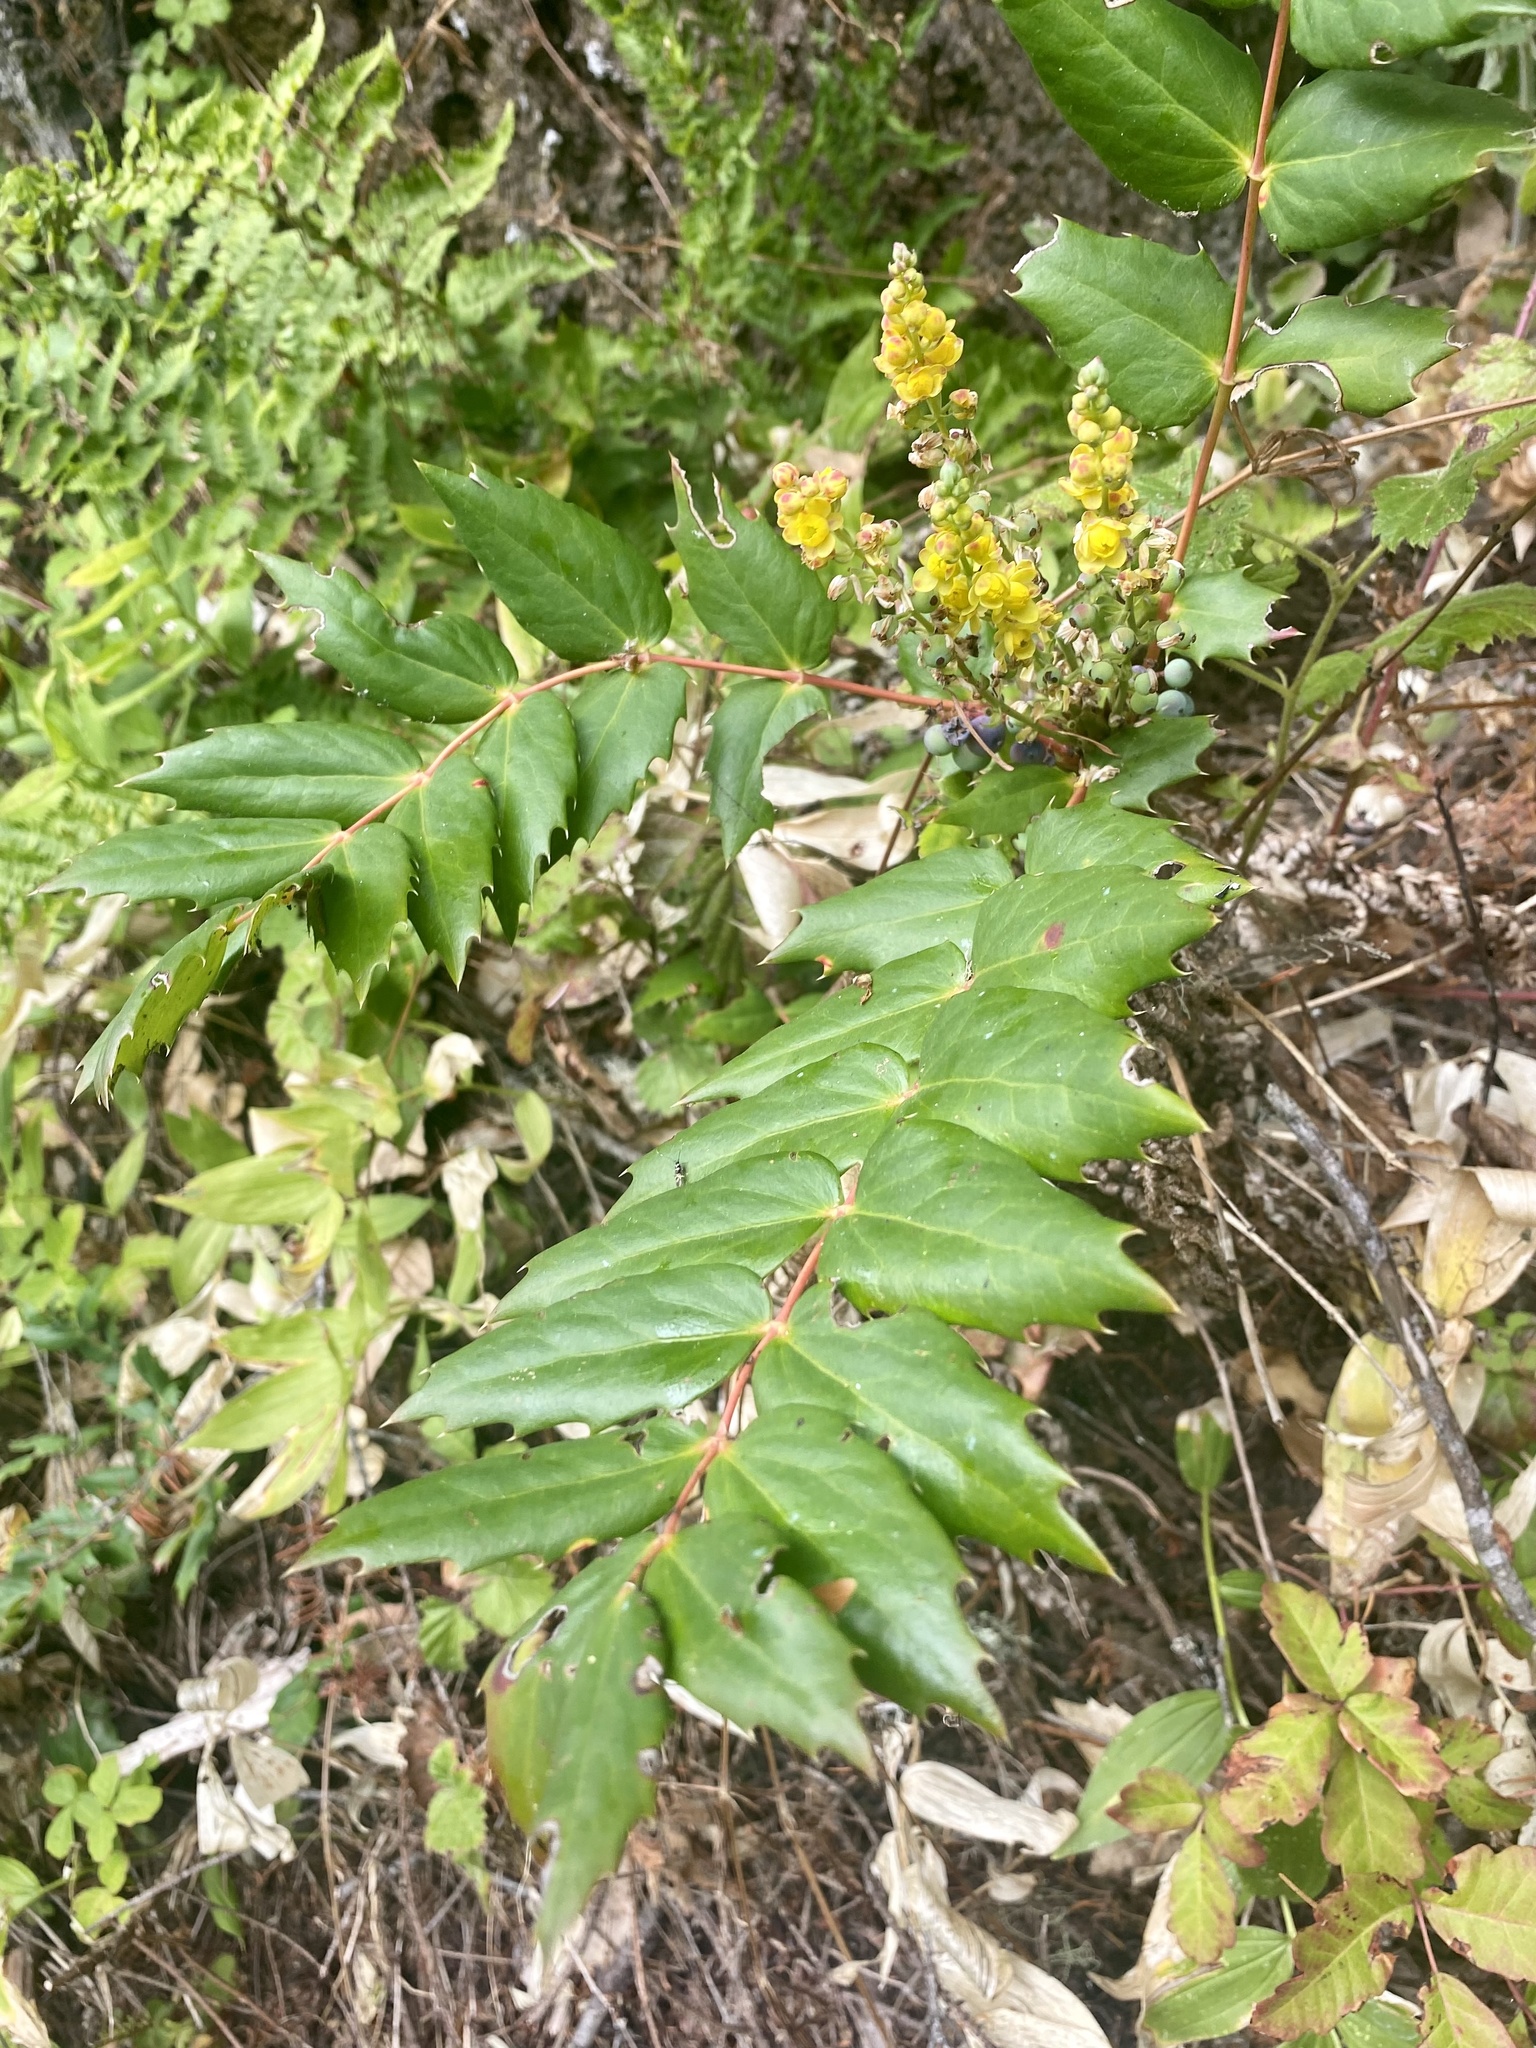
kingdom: Plantae
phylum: Tracheophyta
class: Magnoliopsida
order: Ranunculales
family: Berberidaceae
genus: Mahonia
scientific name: Mahonia nervosa
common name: Cascade oregon-grape
